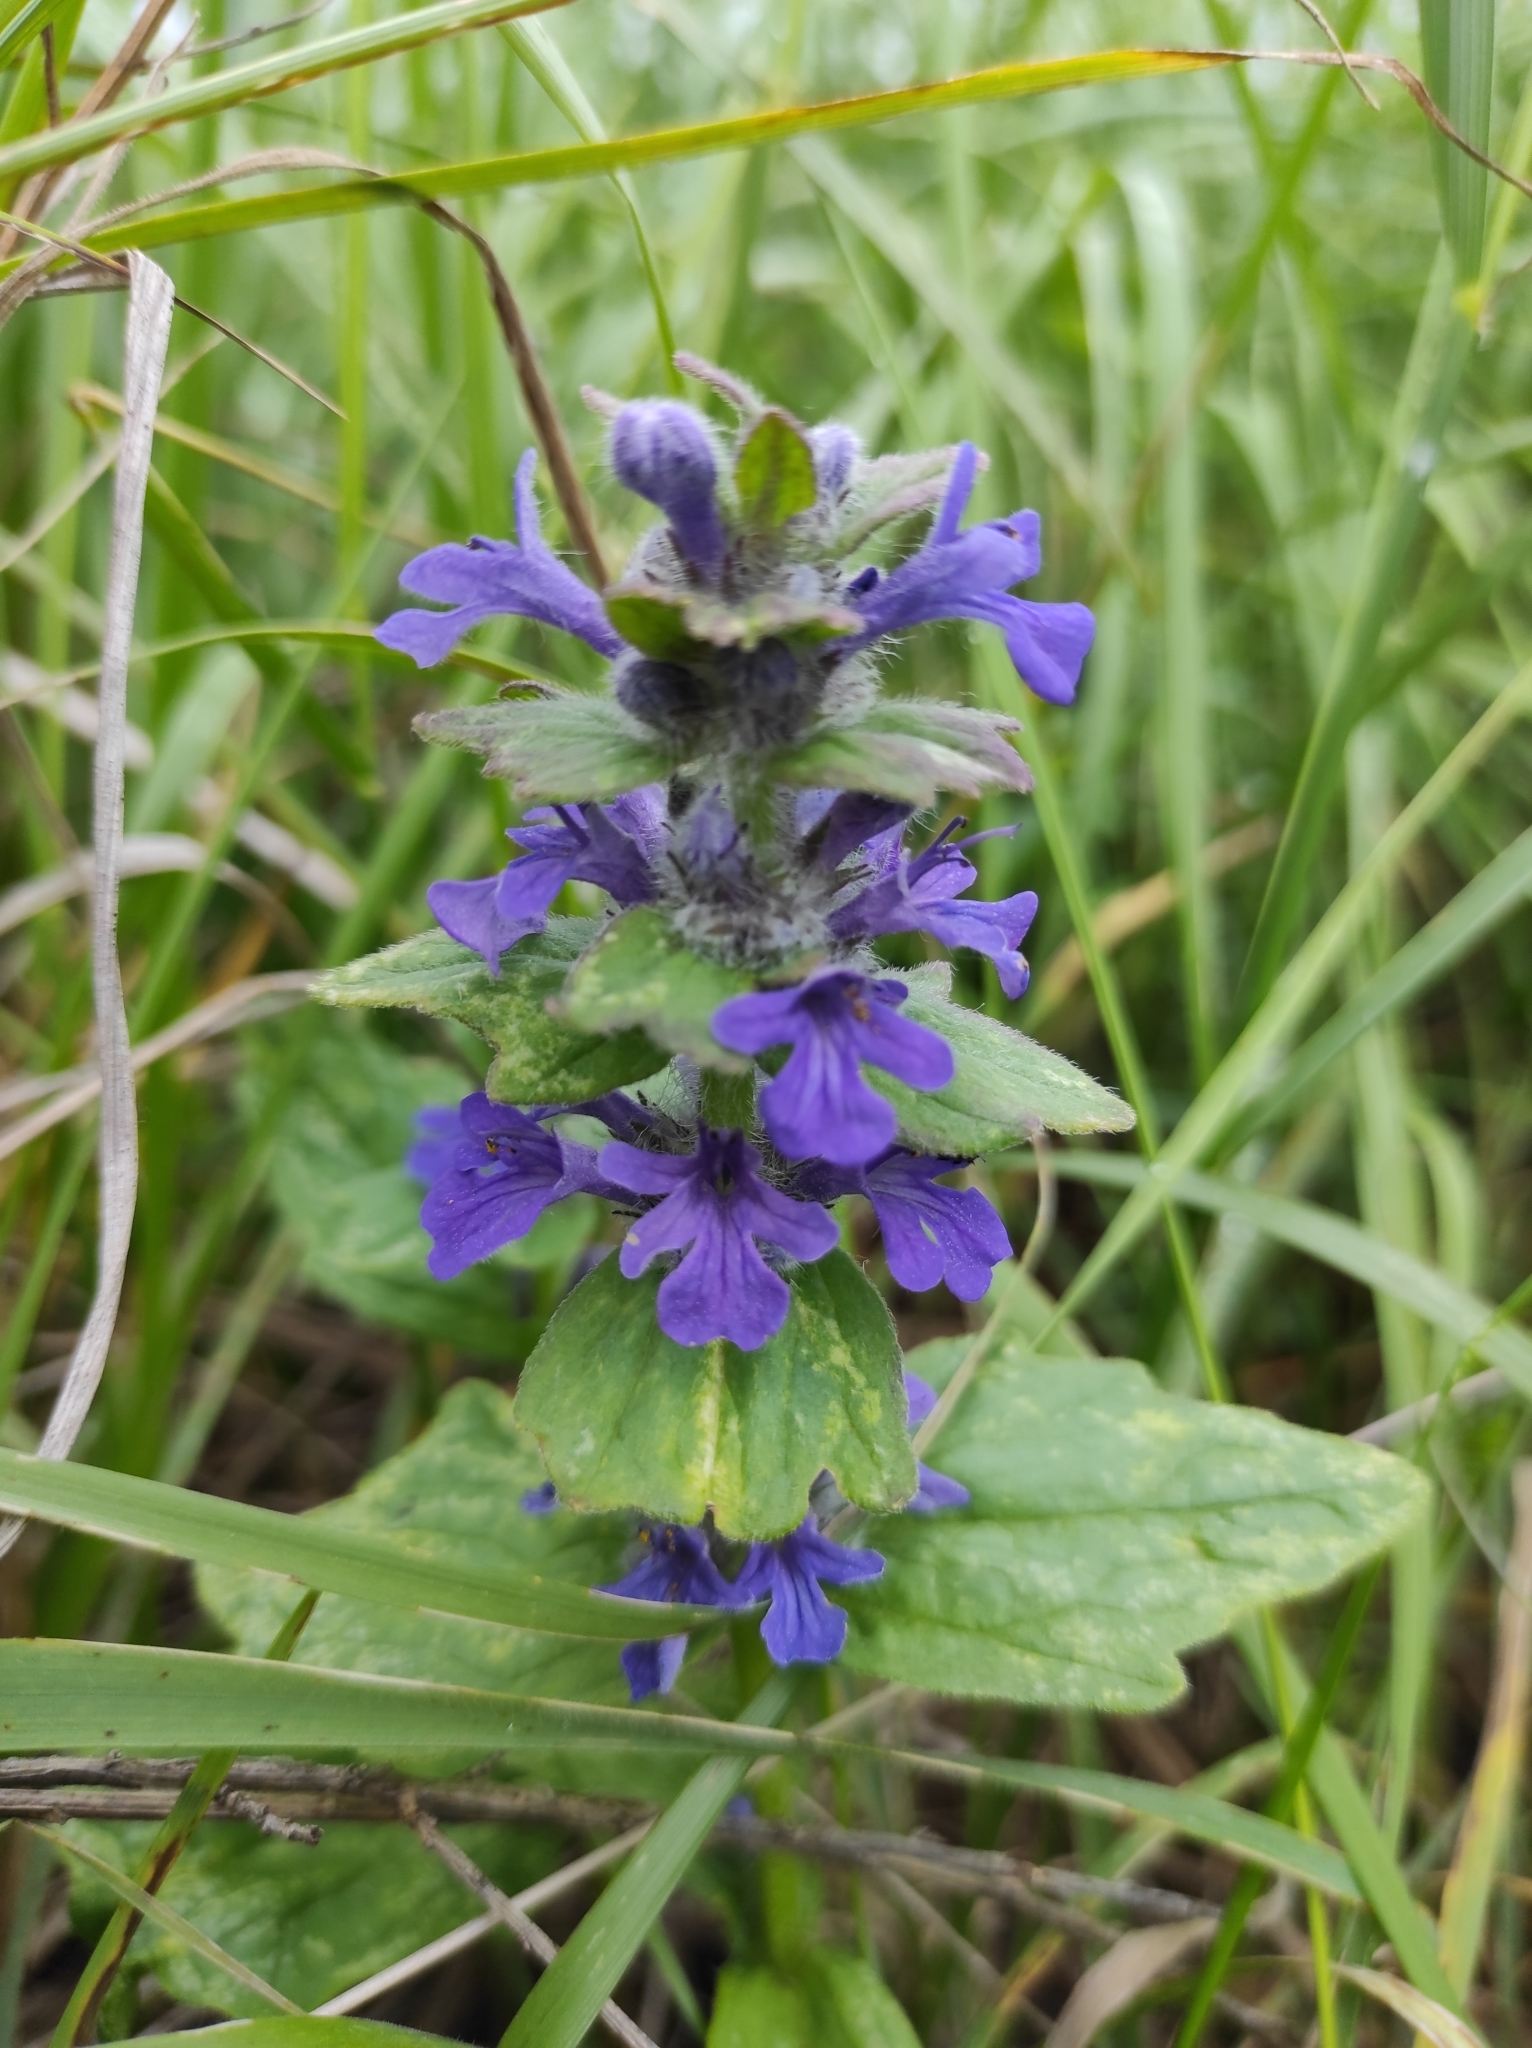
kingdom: Plantae
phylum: Tracheophyta
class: Magnoliopsida
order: Lamiales
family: Lamiaceae
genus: Ajuga
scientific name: Ajuga genevensis
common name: Blue bugle
